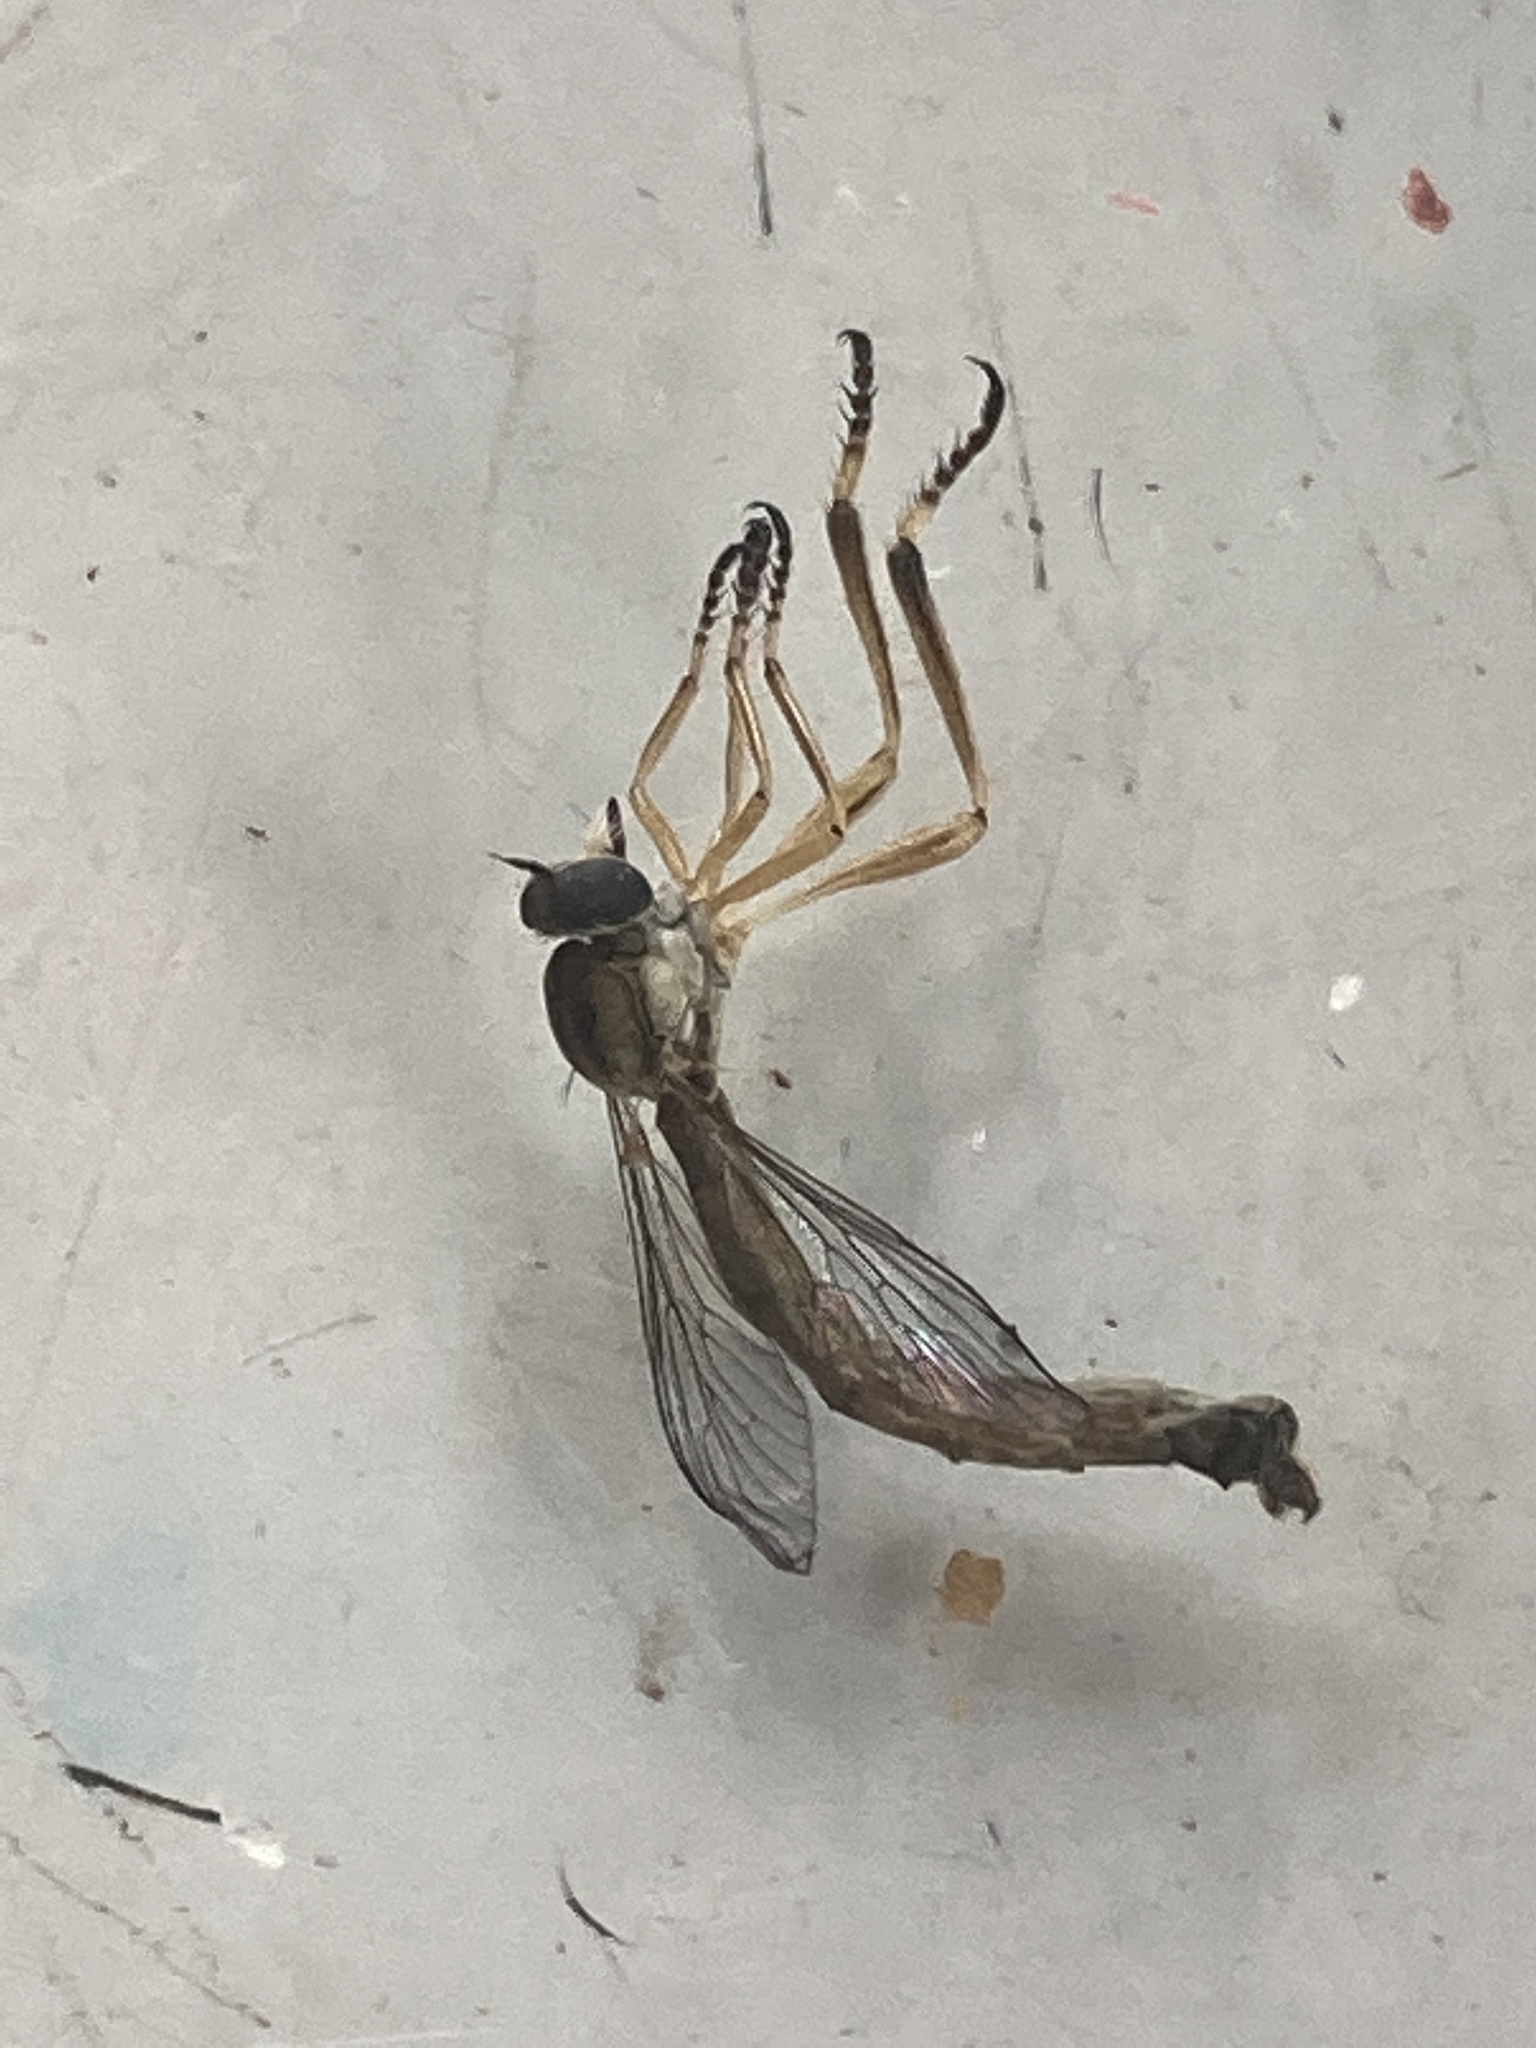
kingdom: Animalia
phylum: Arthropoda
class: Insecta
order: Diptera
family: Asilidae
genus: Leptogaster
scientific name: Leptogaster cylindrica
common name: Striped slender robberfly
